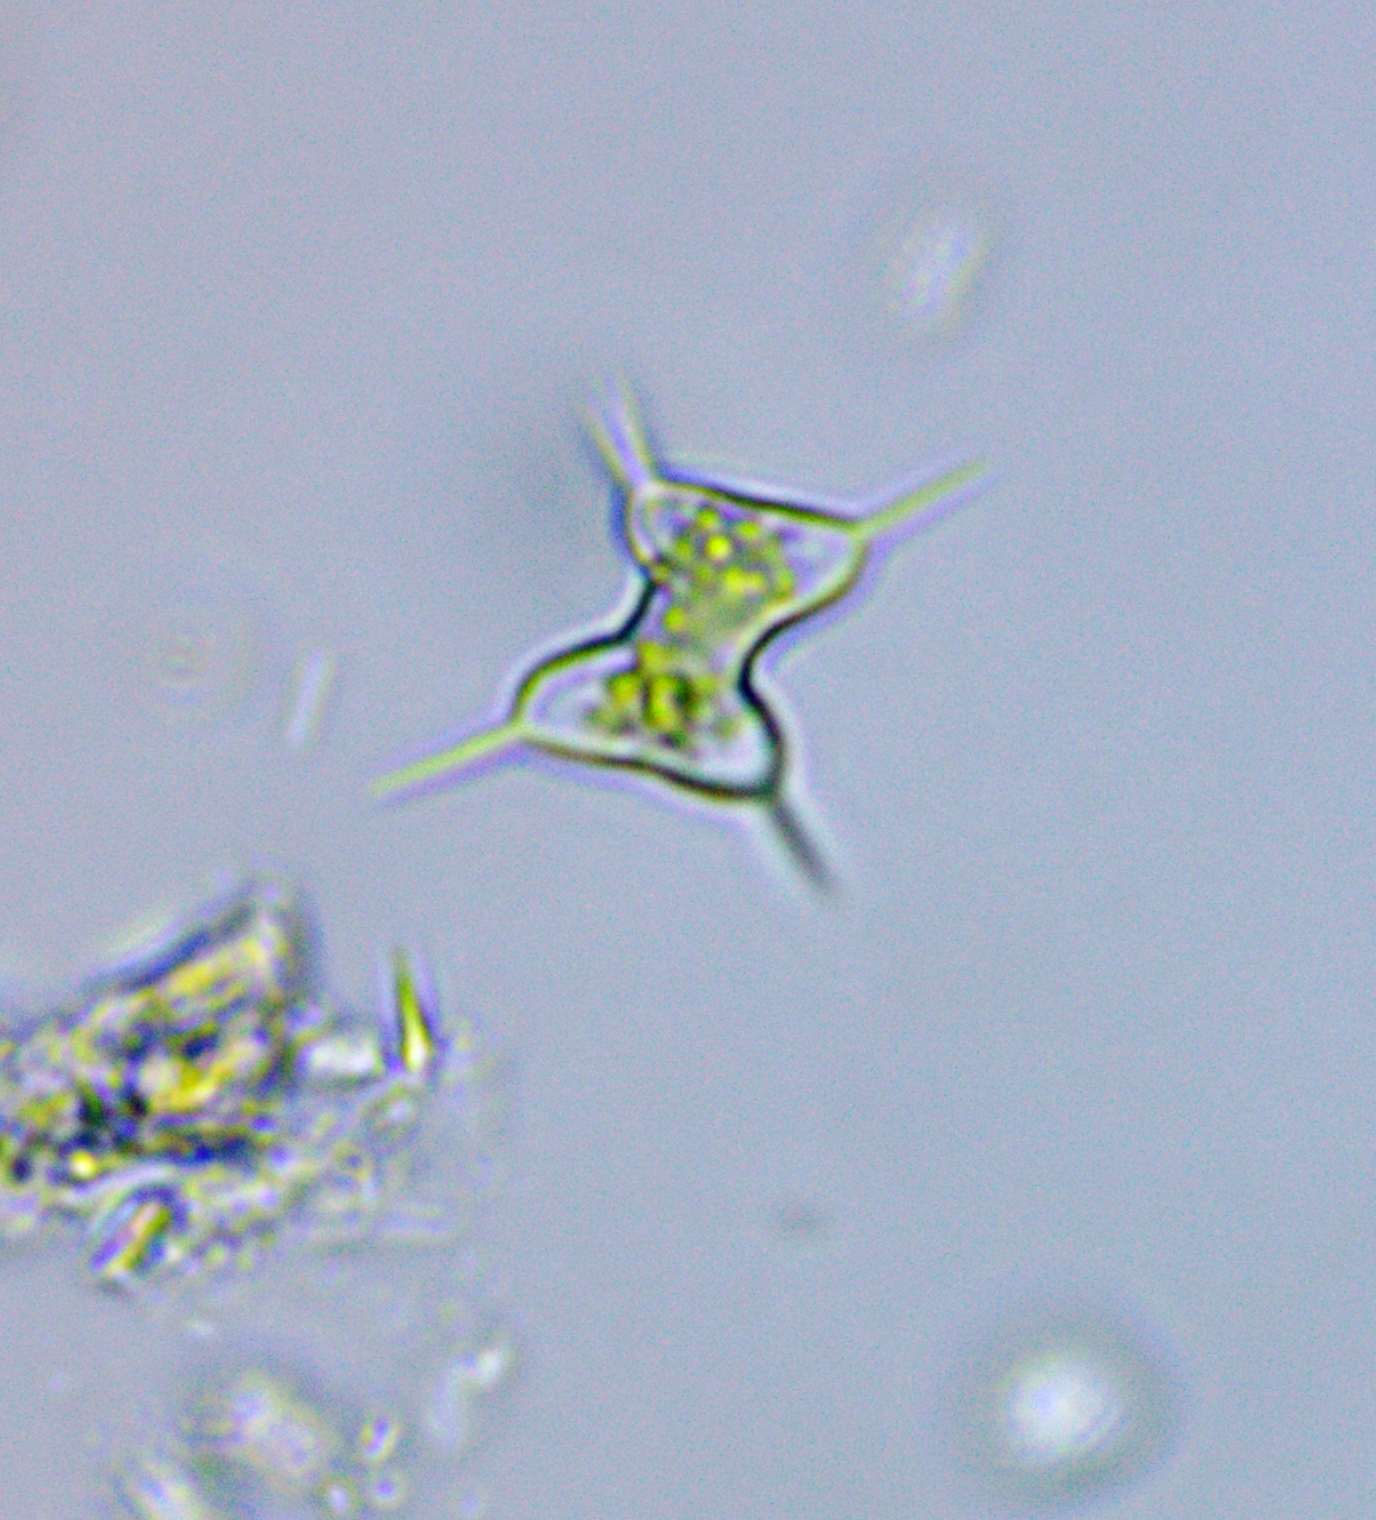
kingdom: Plantae
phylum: Charophyta
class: Conjugatophyceae
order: Desmidiales
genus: Staurodesmus
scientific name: Staurodesmus extensus
